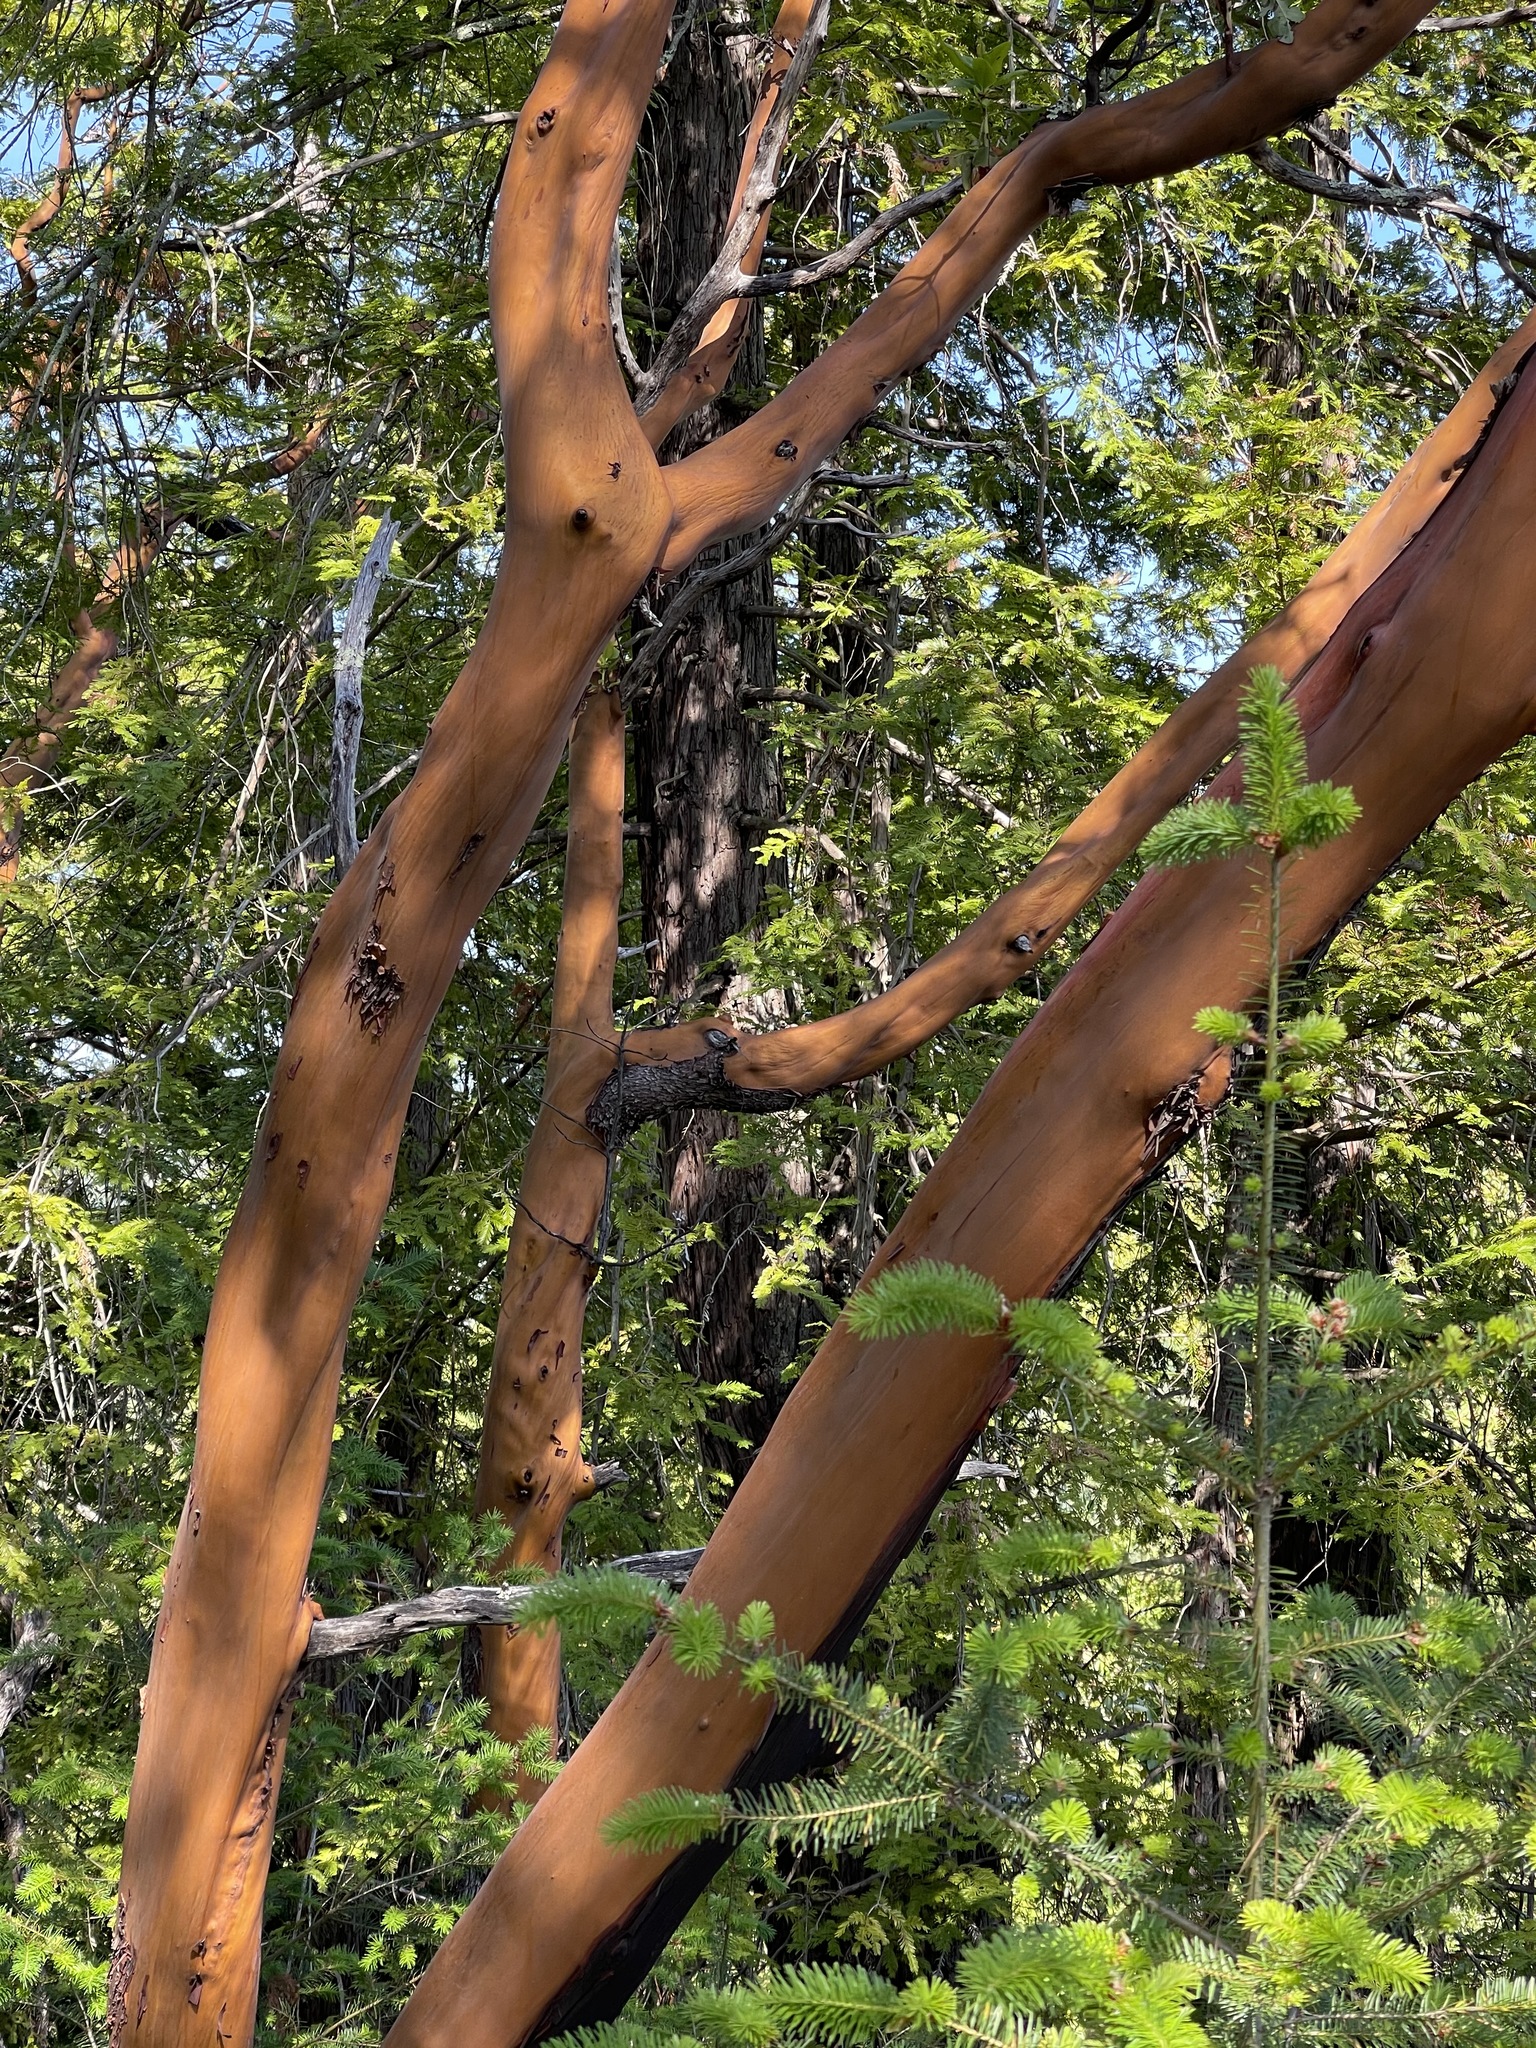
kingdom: Plantae
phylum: Tracheophyta
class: Magnoliopsida
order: Ericales
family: Ericaceae
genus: Arbutus
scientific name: Arbutus menziesii
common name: Pacific madrone
